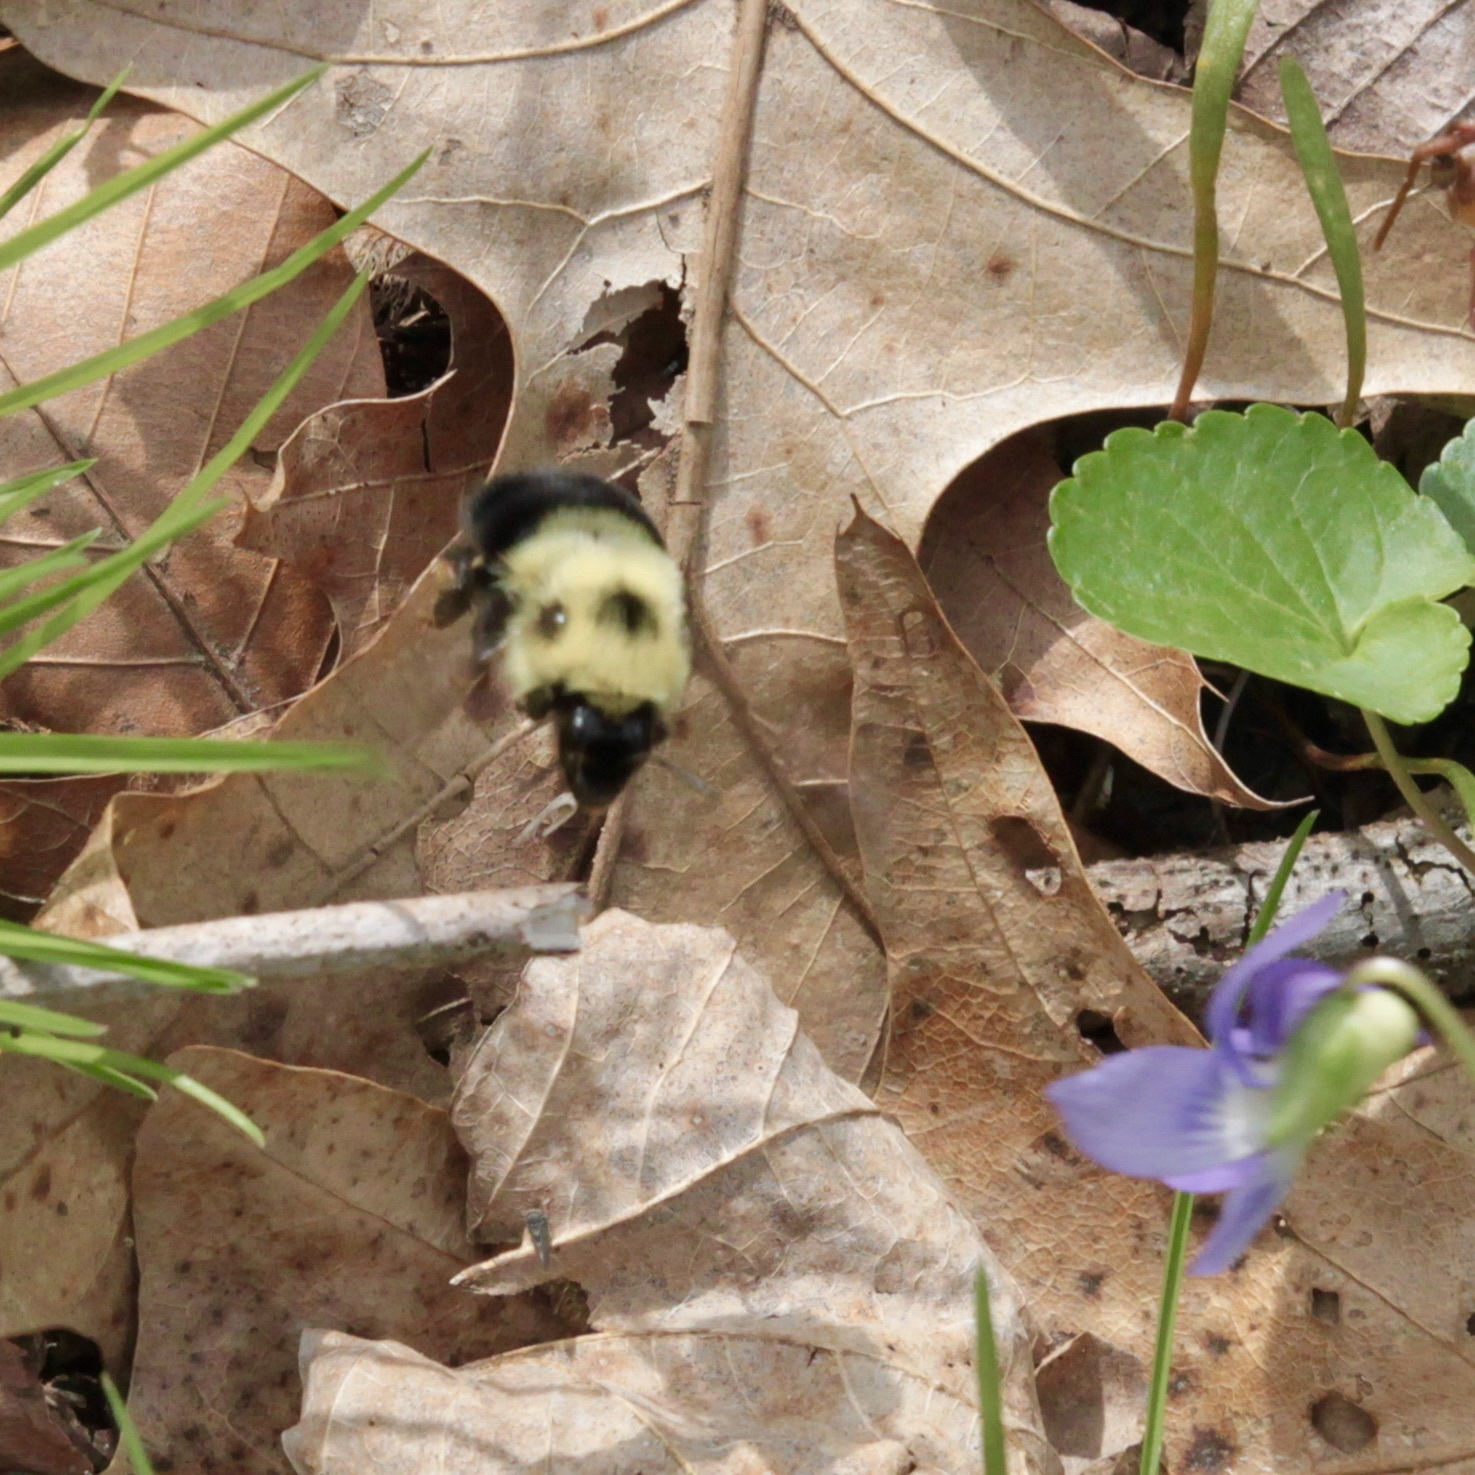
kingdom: Animalia
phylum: Arthropoda
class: Insecta
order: Hymenoptera
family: Apidae
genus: Bombus
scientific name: Bombus bimaculatus
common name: Two-spotted bumble bee
